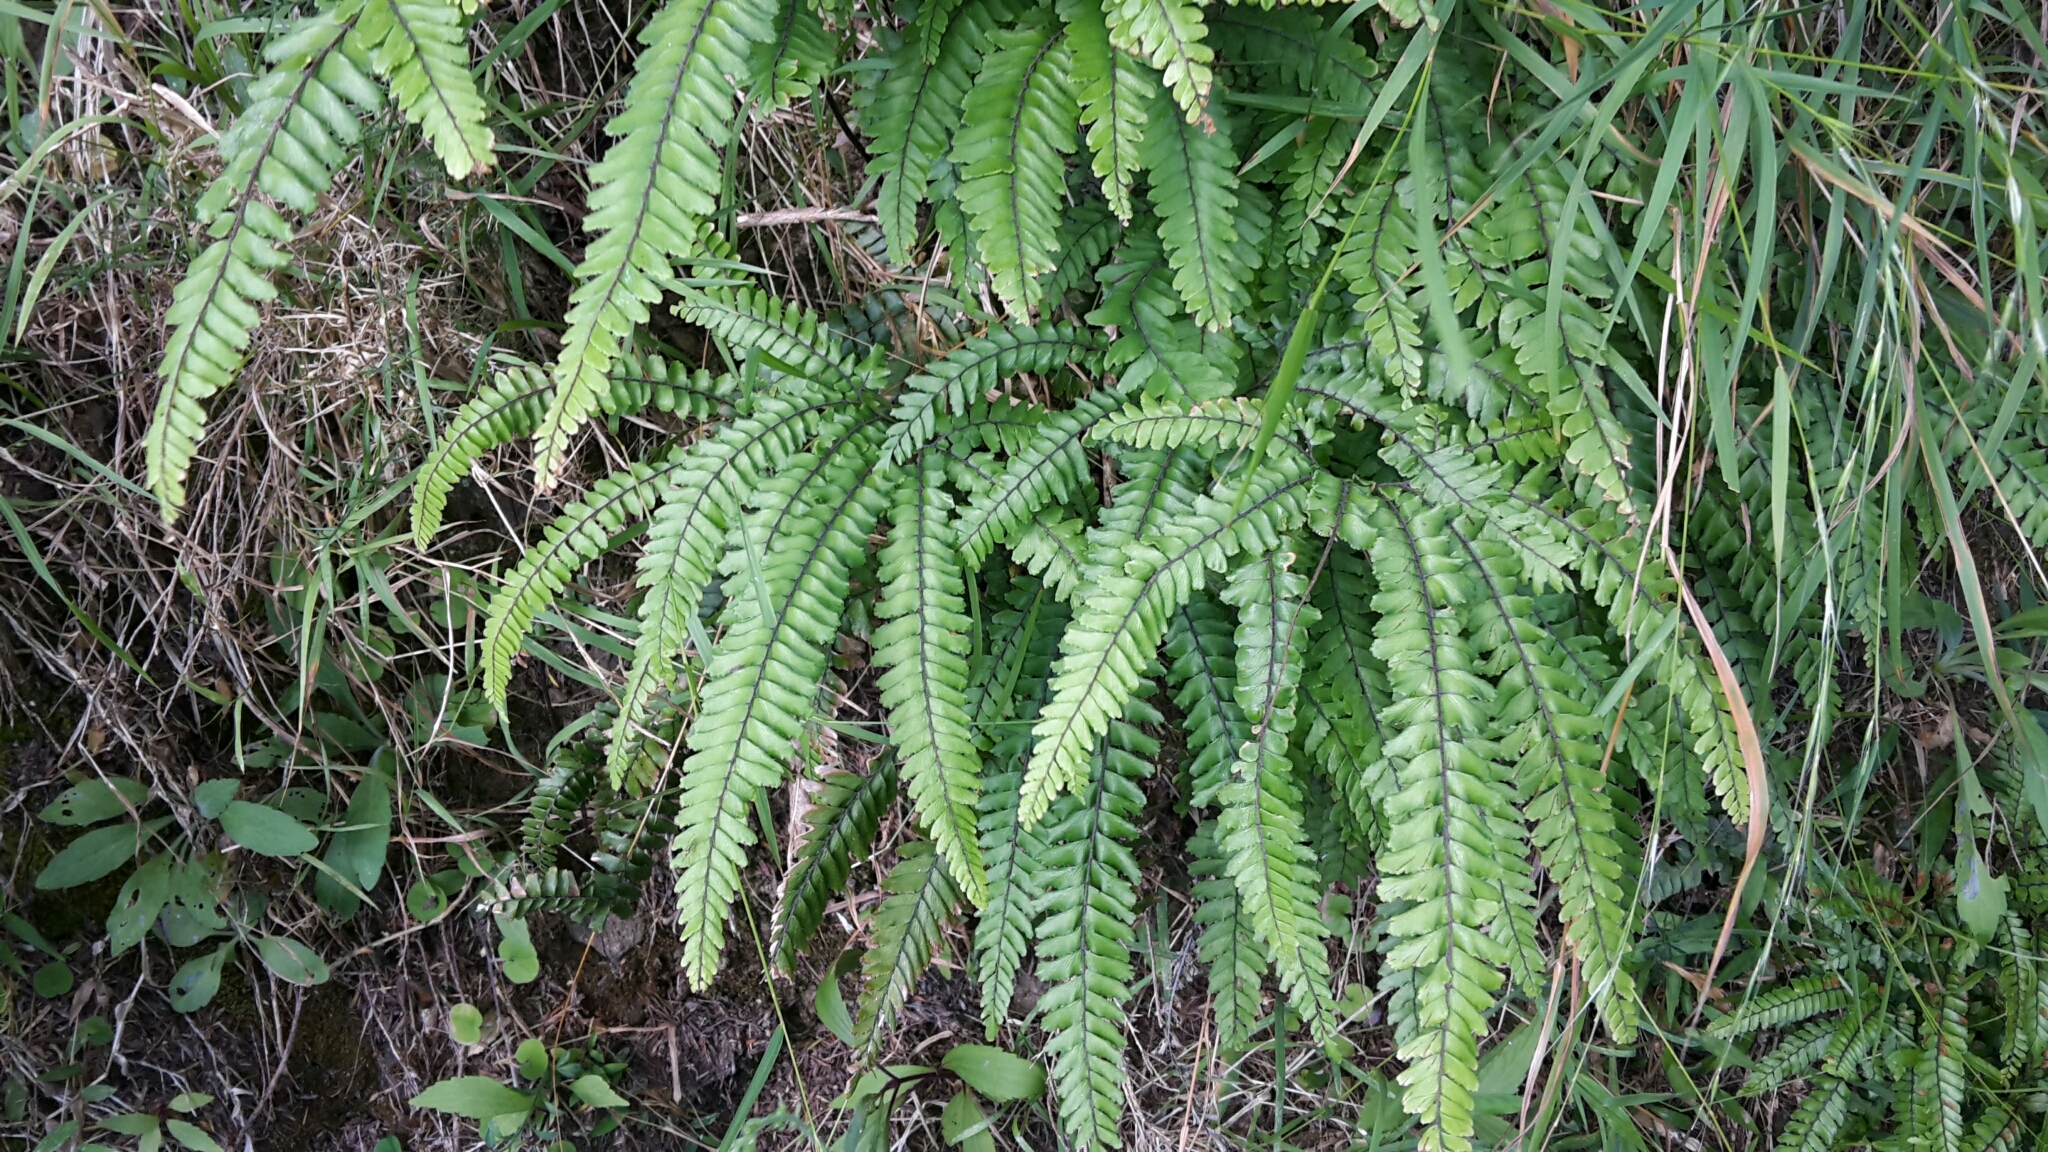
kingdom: Plantae
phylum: Tracheophyta
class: Polypodiopsida
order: Polypodiales
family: Pteridaceae
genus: Adiantum
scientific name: Adiantum hispidulum
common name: Rough maidenhair
